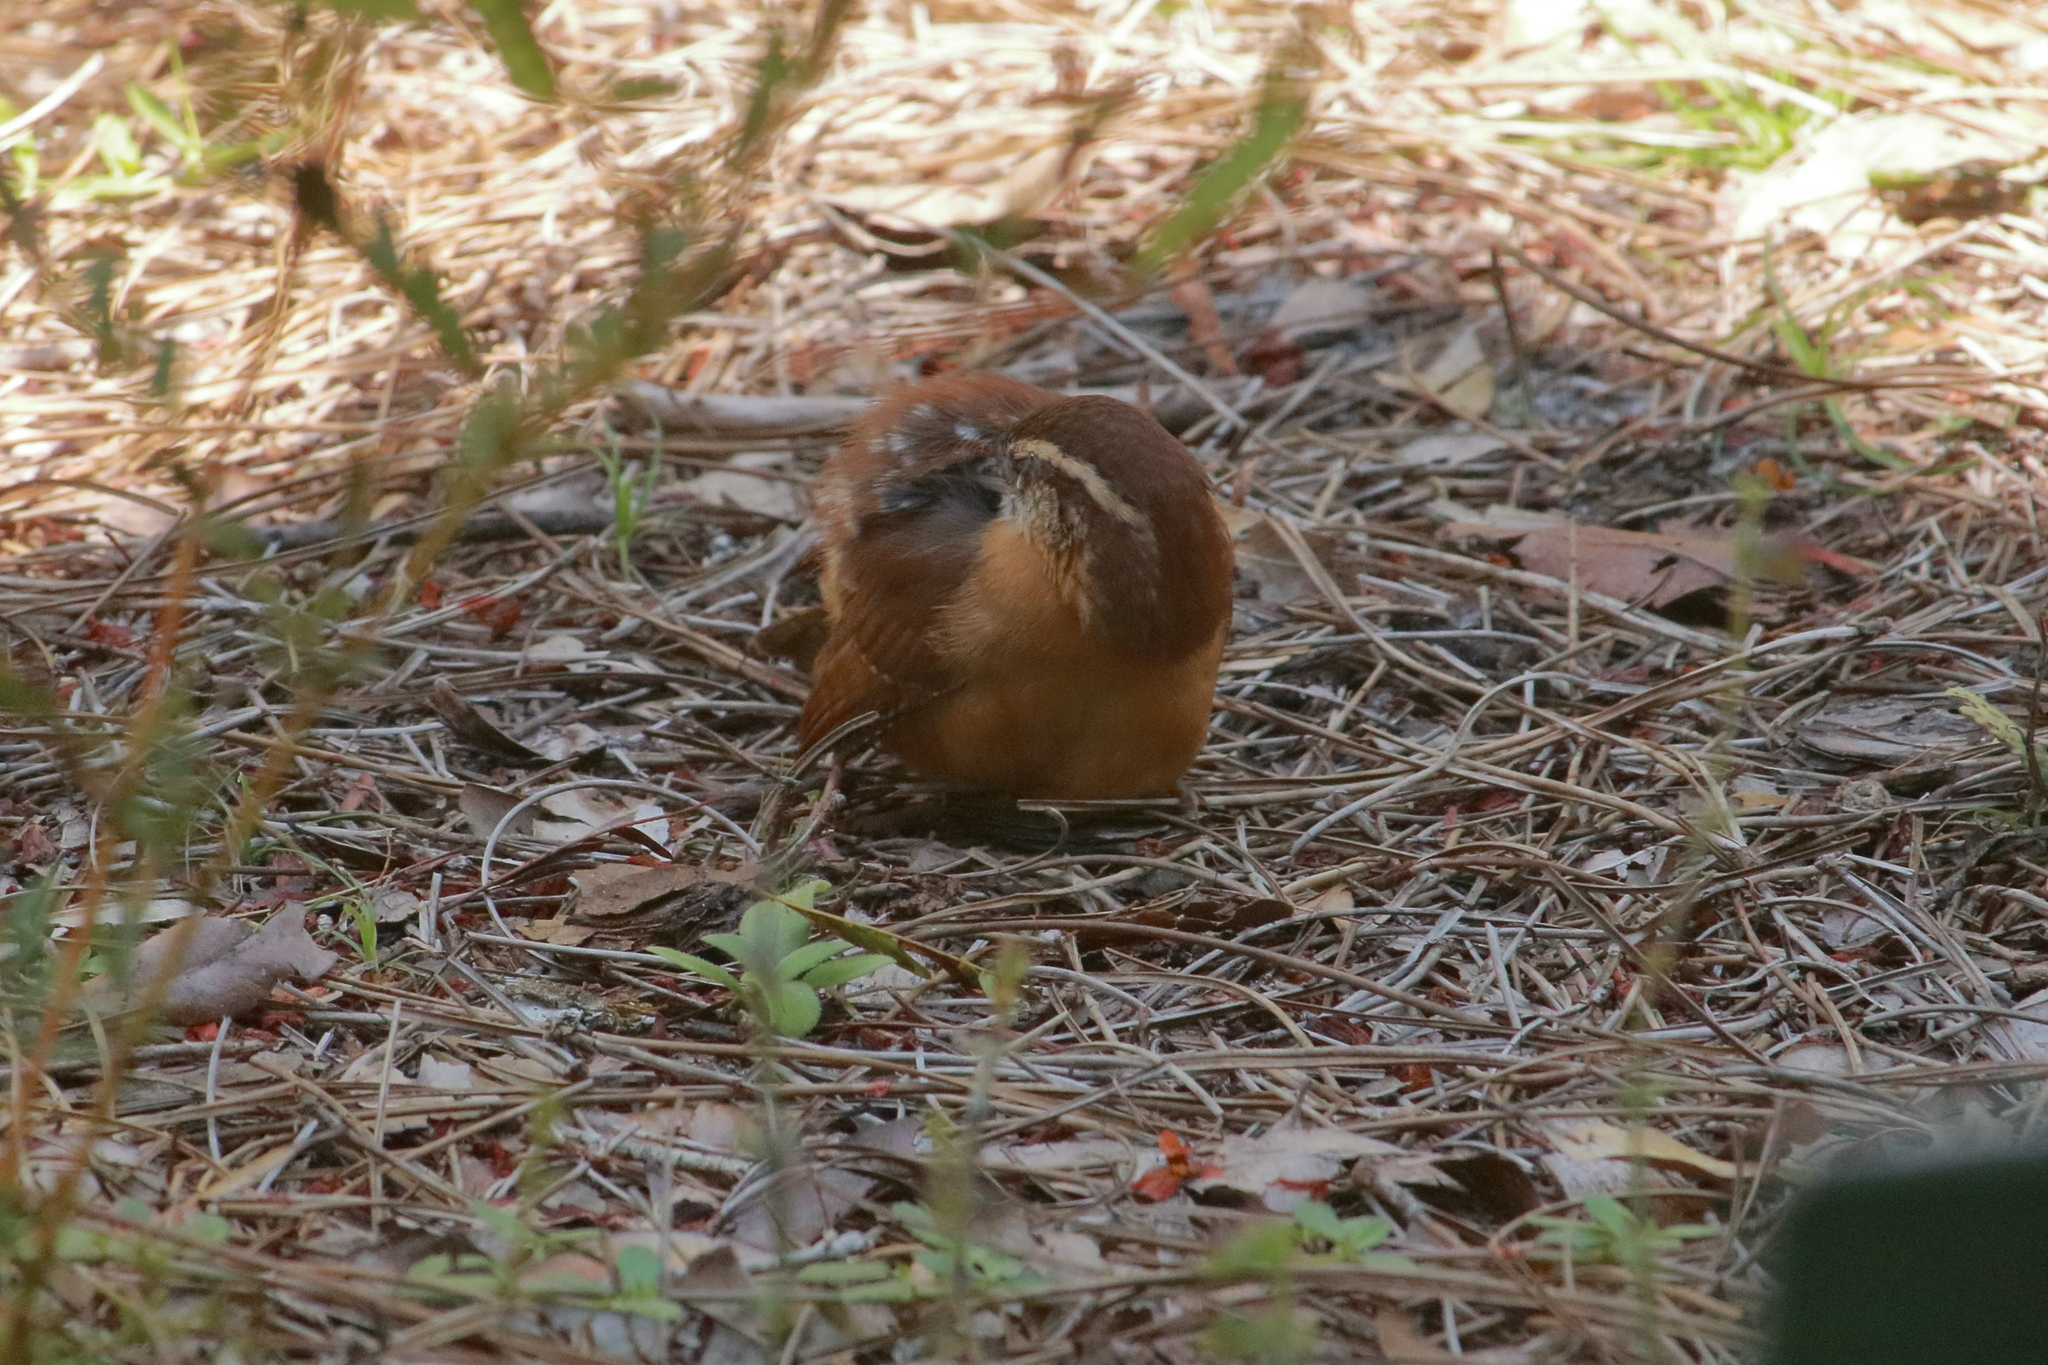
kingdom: Animalia
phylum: Chordata
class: Aves
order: Passeriformes
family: Troglodytidae
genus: Thryothorus
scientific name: Thryothorus ludovicianus
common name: Carolina wren
